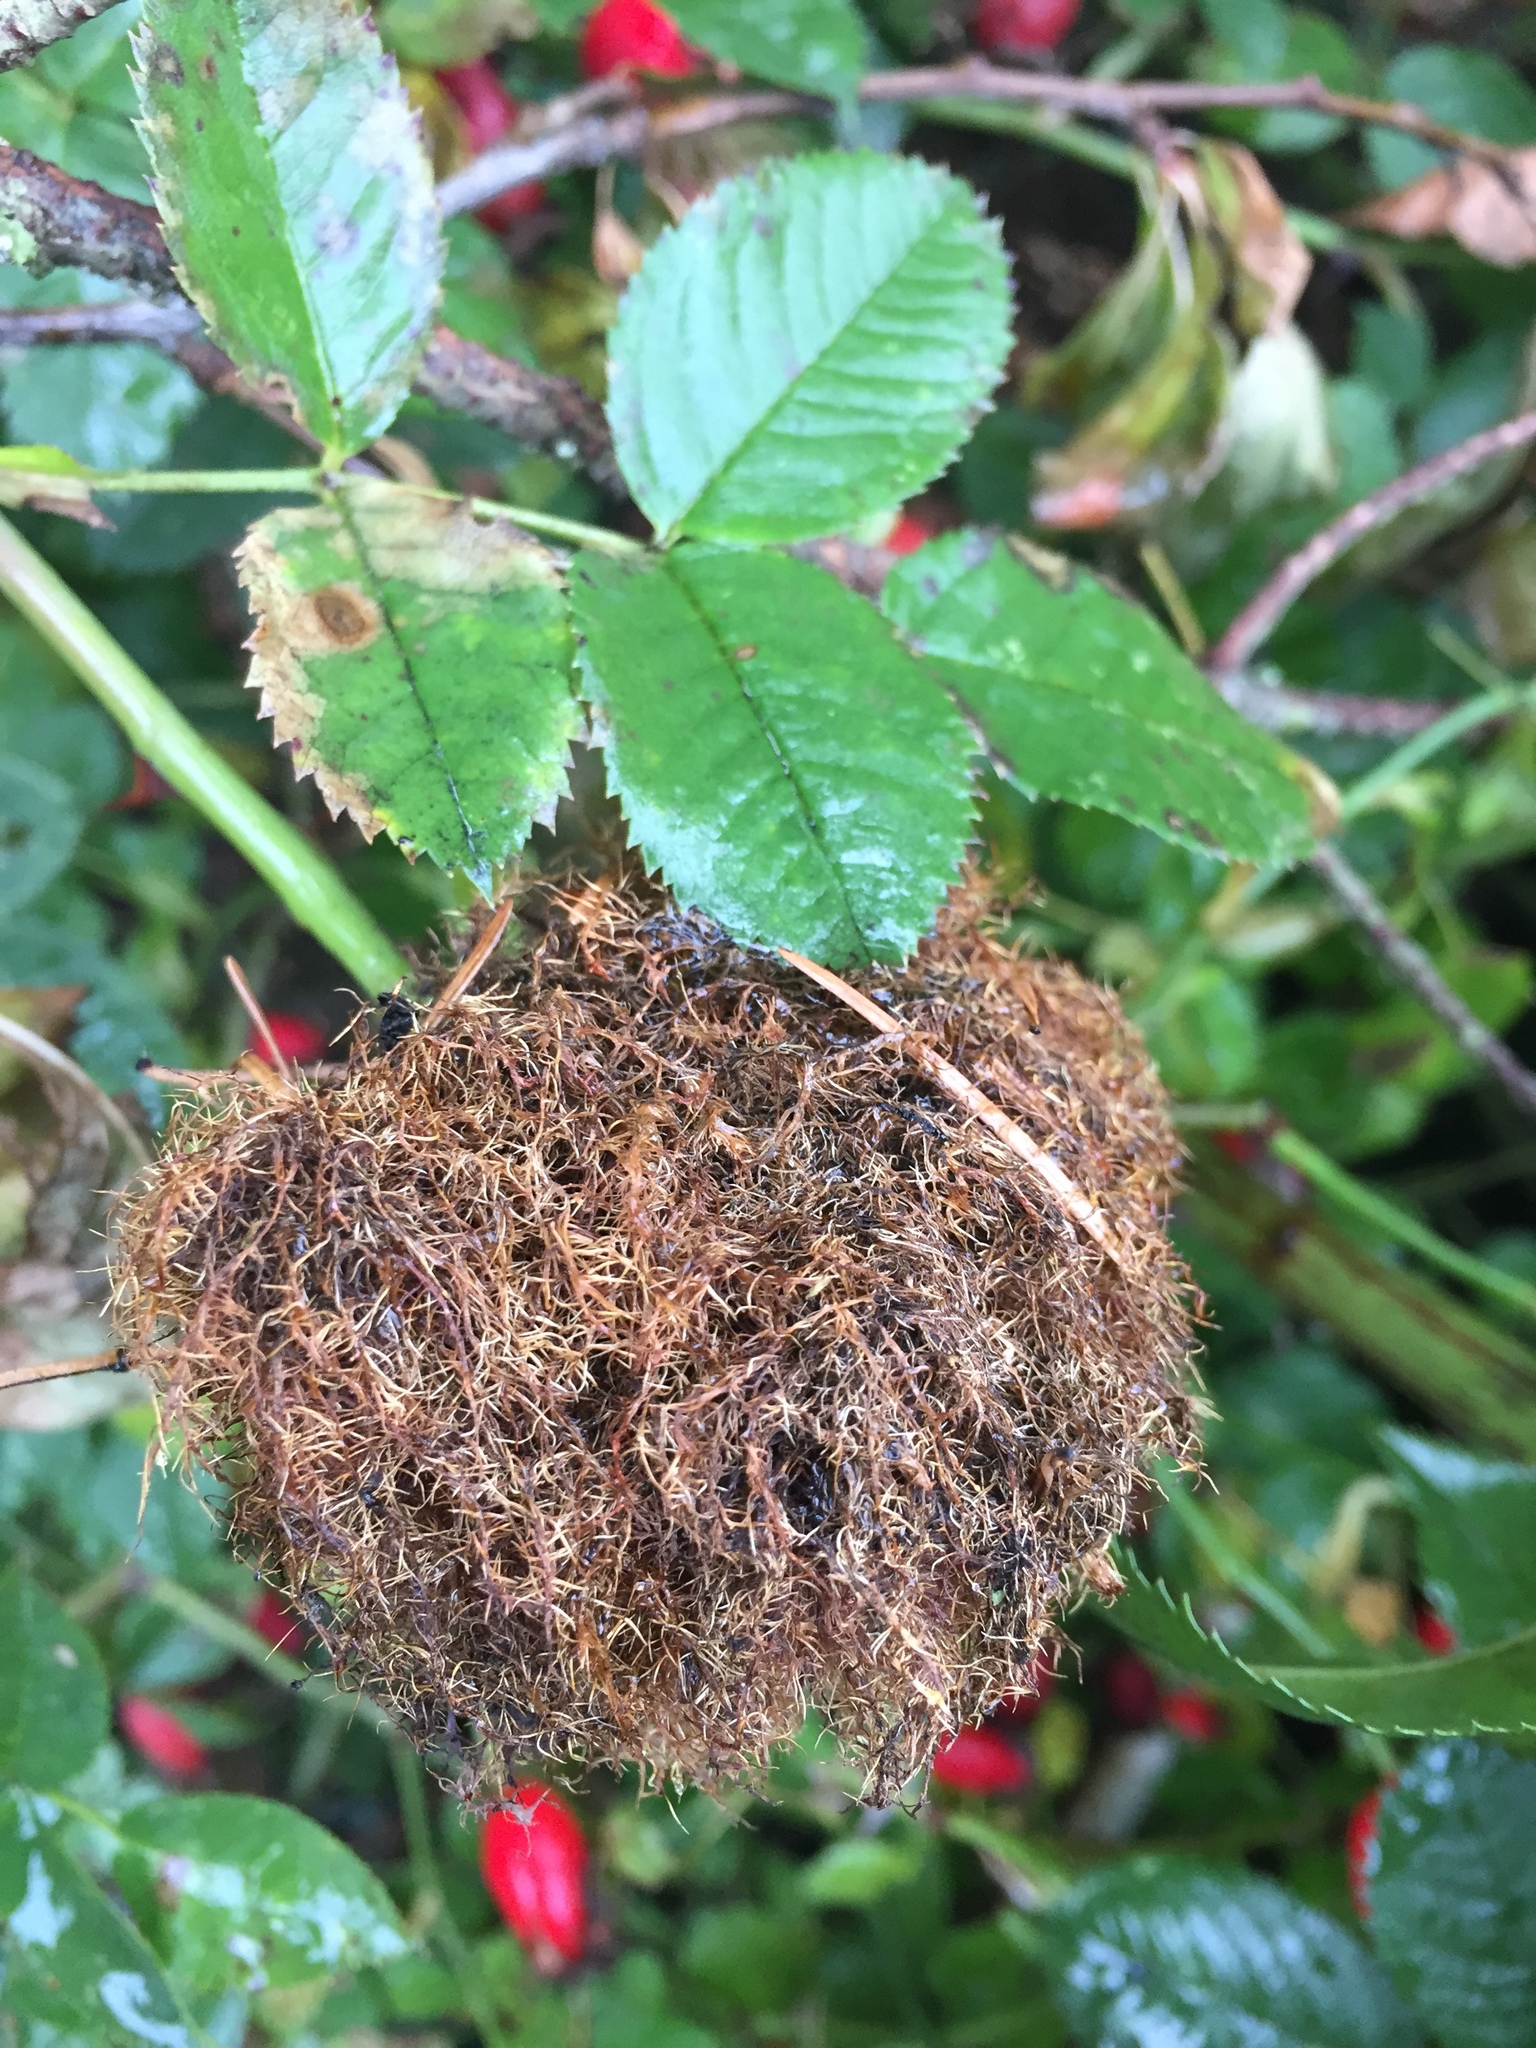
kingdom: Animalia
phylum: Arthropoda
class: Insecta
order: Hymenoptera
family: Cynipidae
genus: Diplolepis
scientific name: Diplolepis rosae
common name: Bedeguar gall
